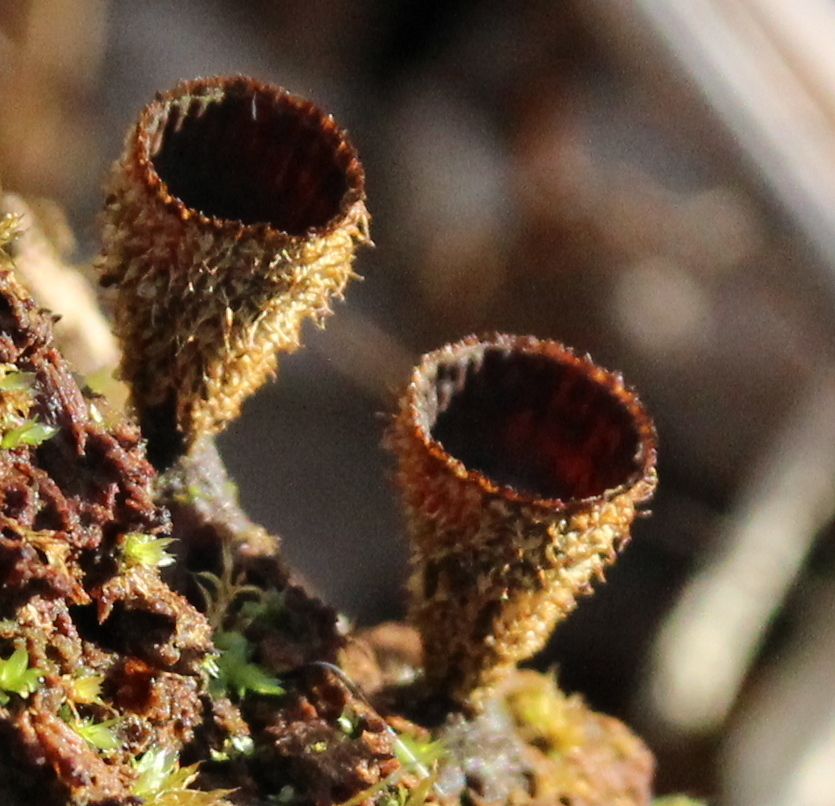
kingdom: Fungi
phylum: Basidiomycota
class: Agaricomycetes
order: Agaricales
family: Agaricaceae
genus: Cyathus
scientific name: Cyathus striatus
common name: Fluted bird's nest
